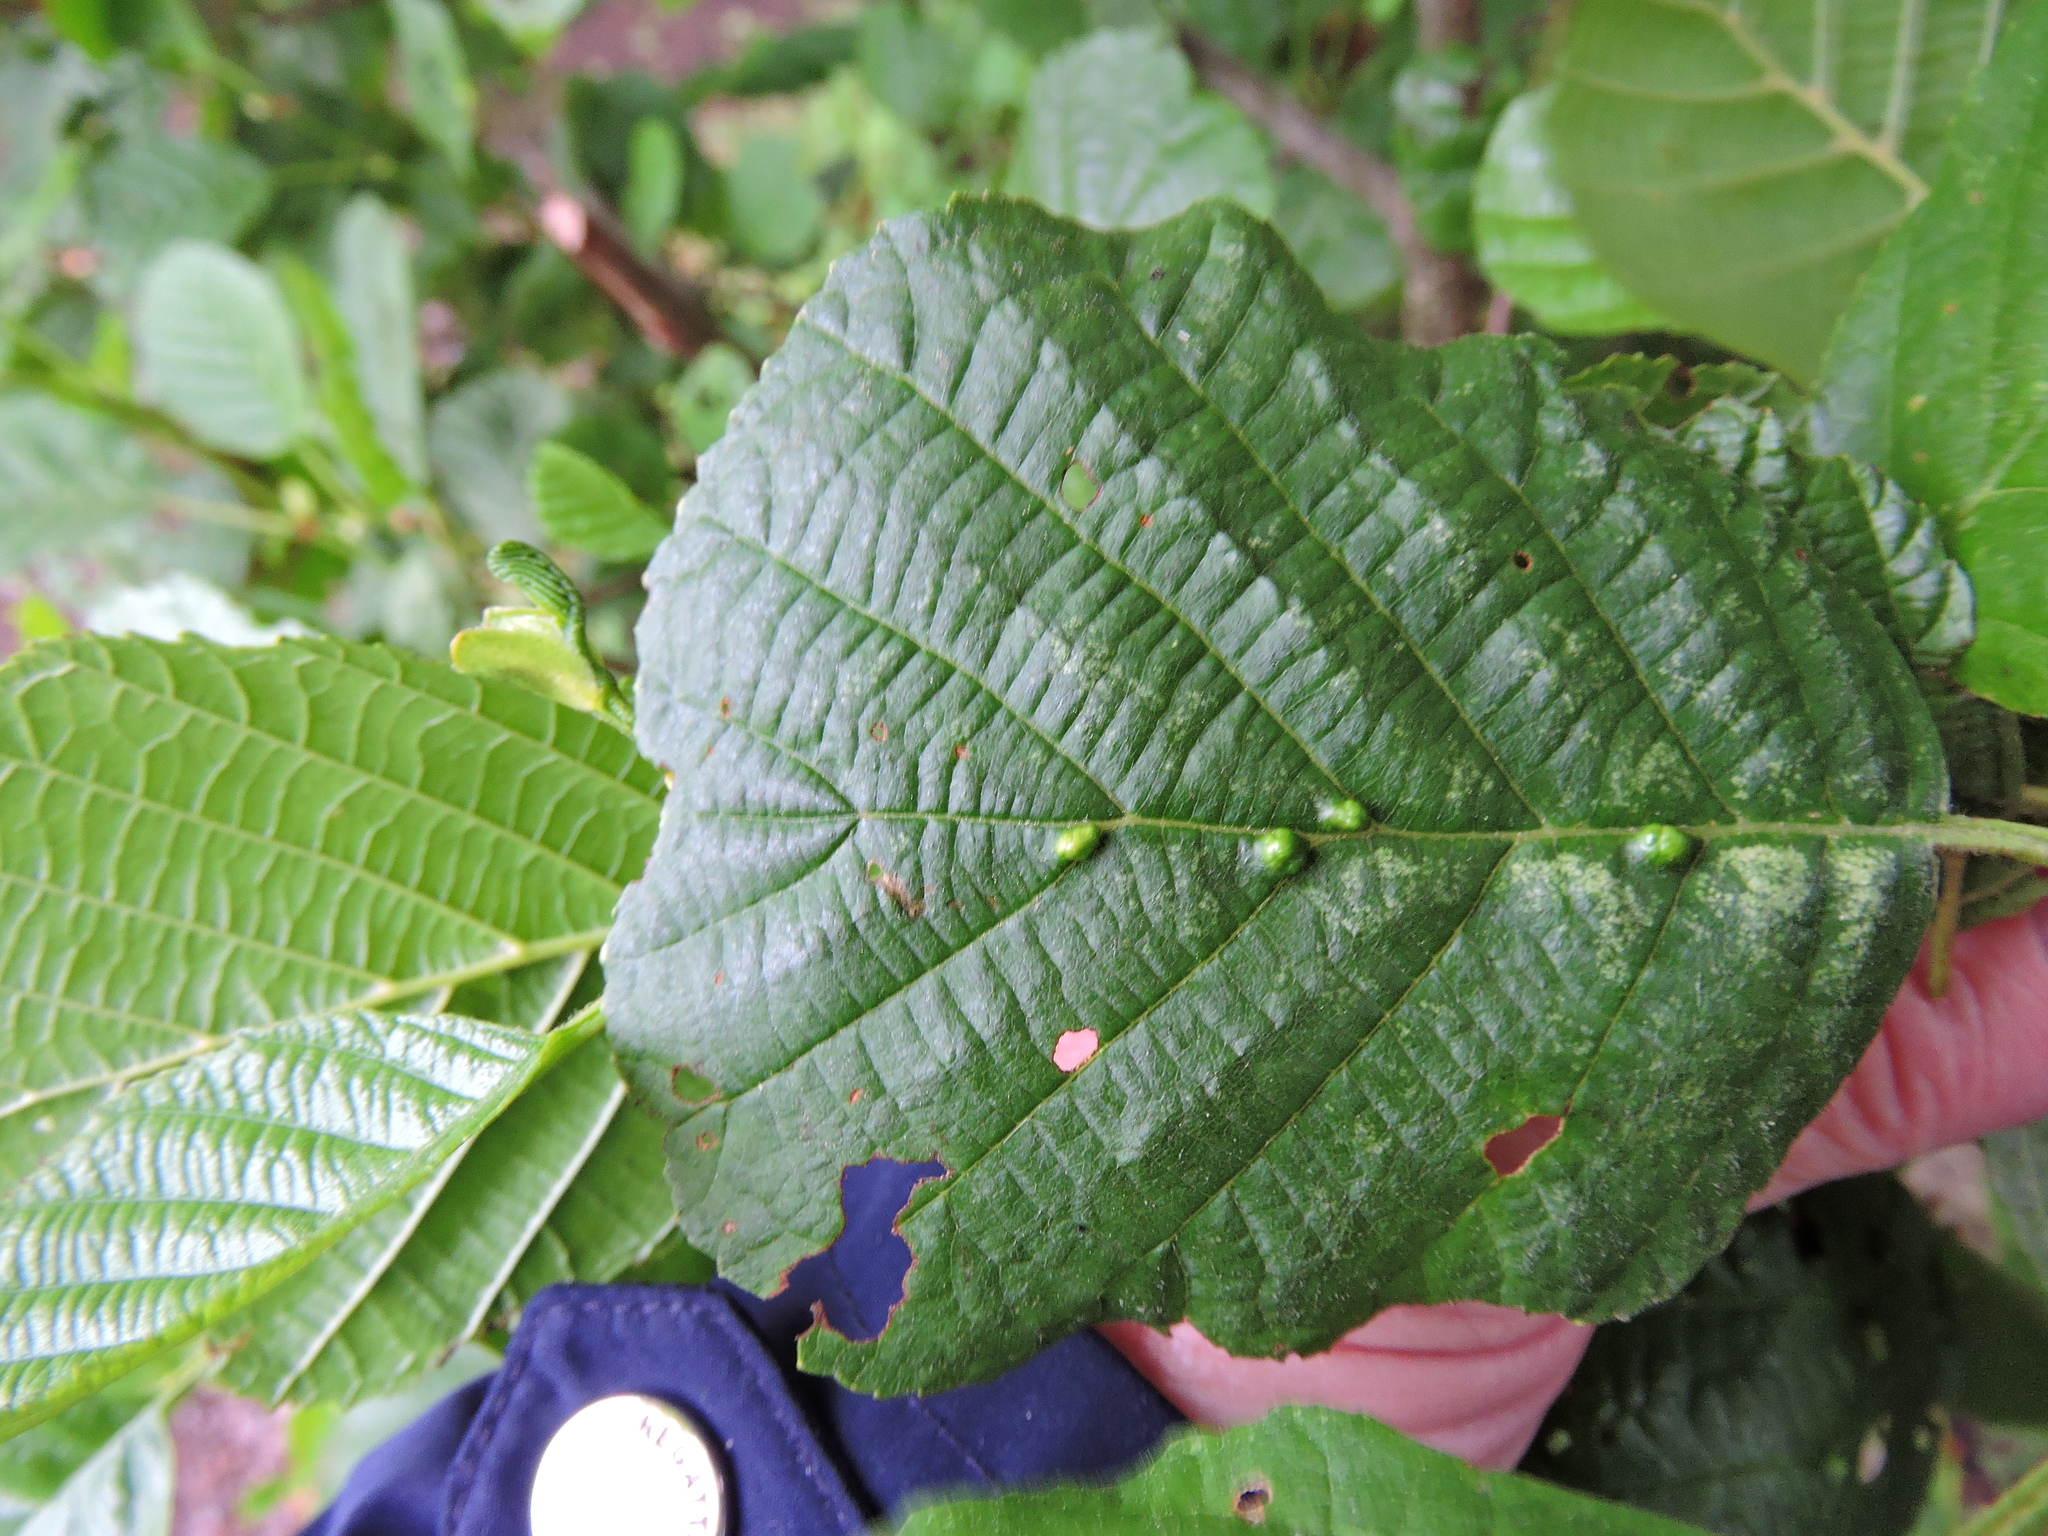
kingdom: Animalia
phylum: Arthropoda
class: Arachnida
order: Trombidiformes
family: Eriophyidae
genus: Eriophyes
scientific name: Eriophyes inangulis
